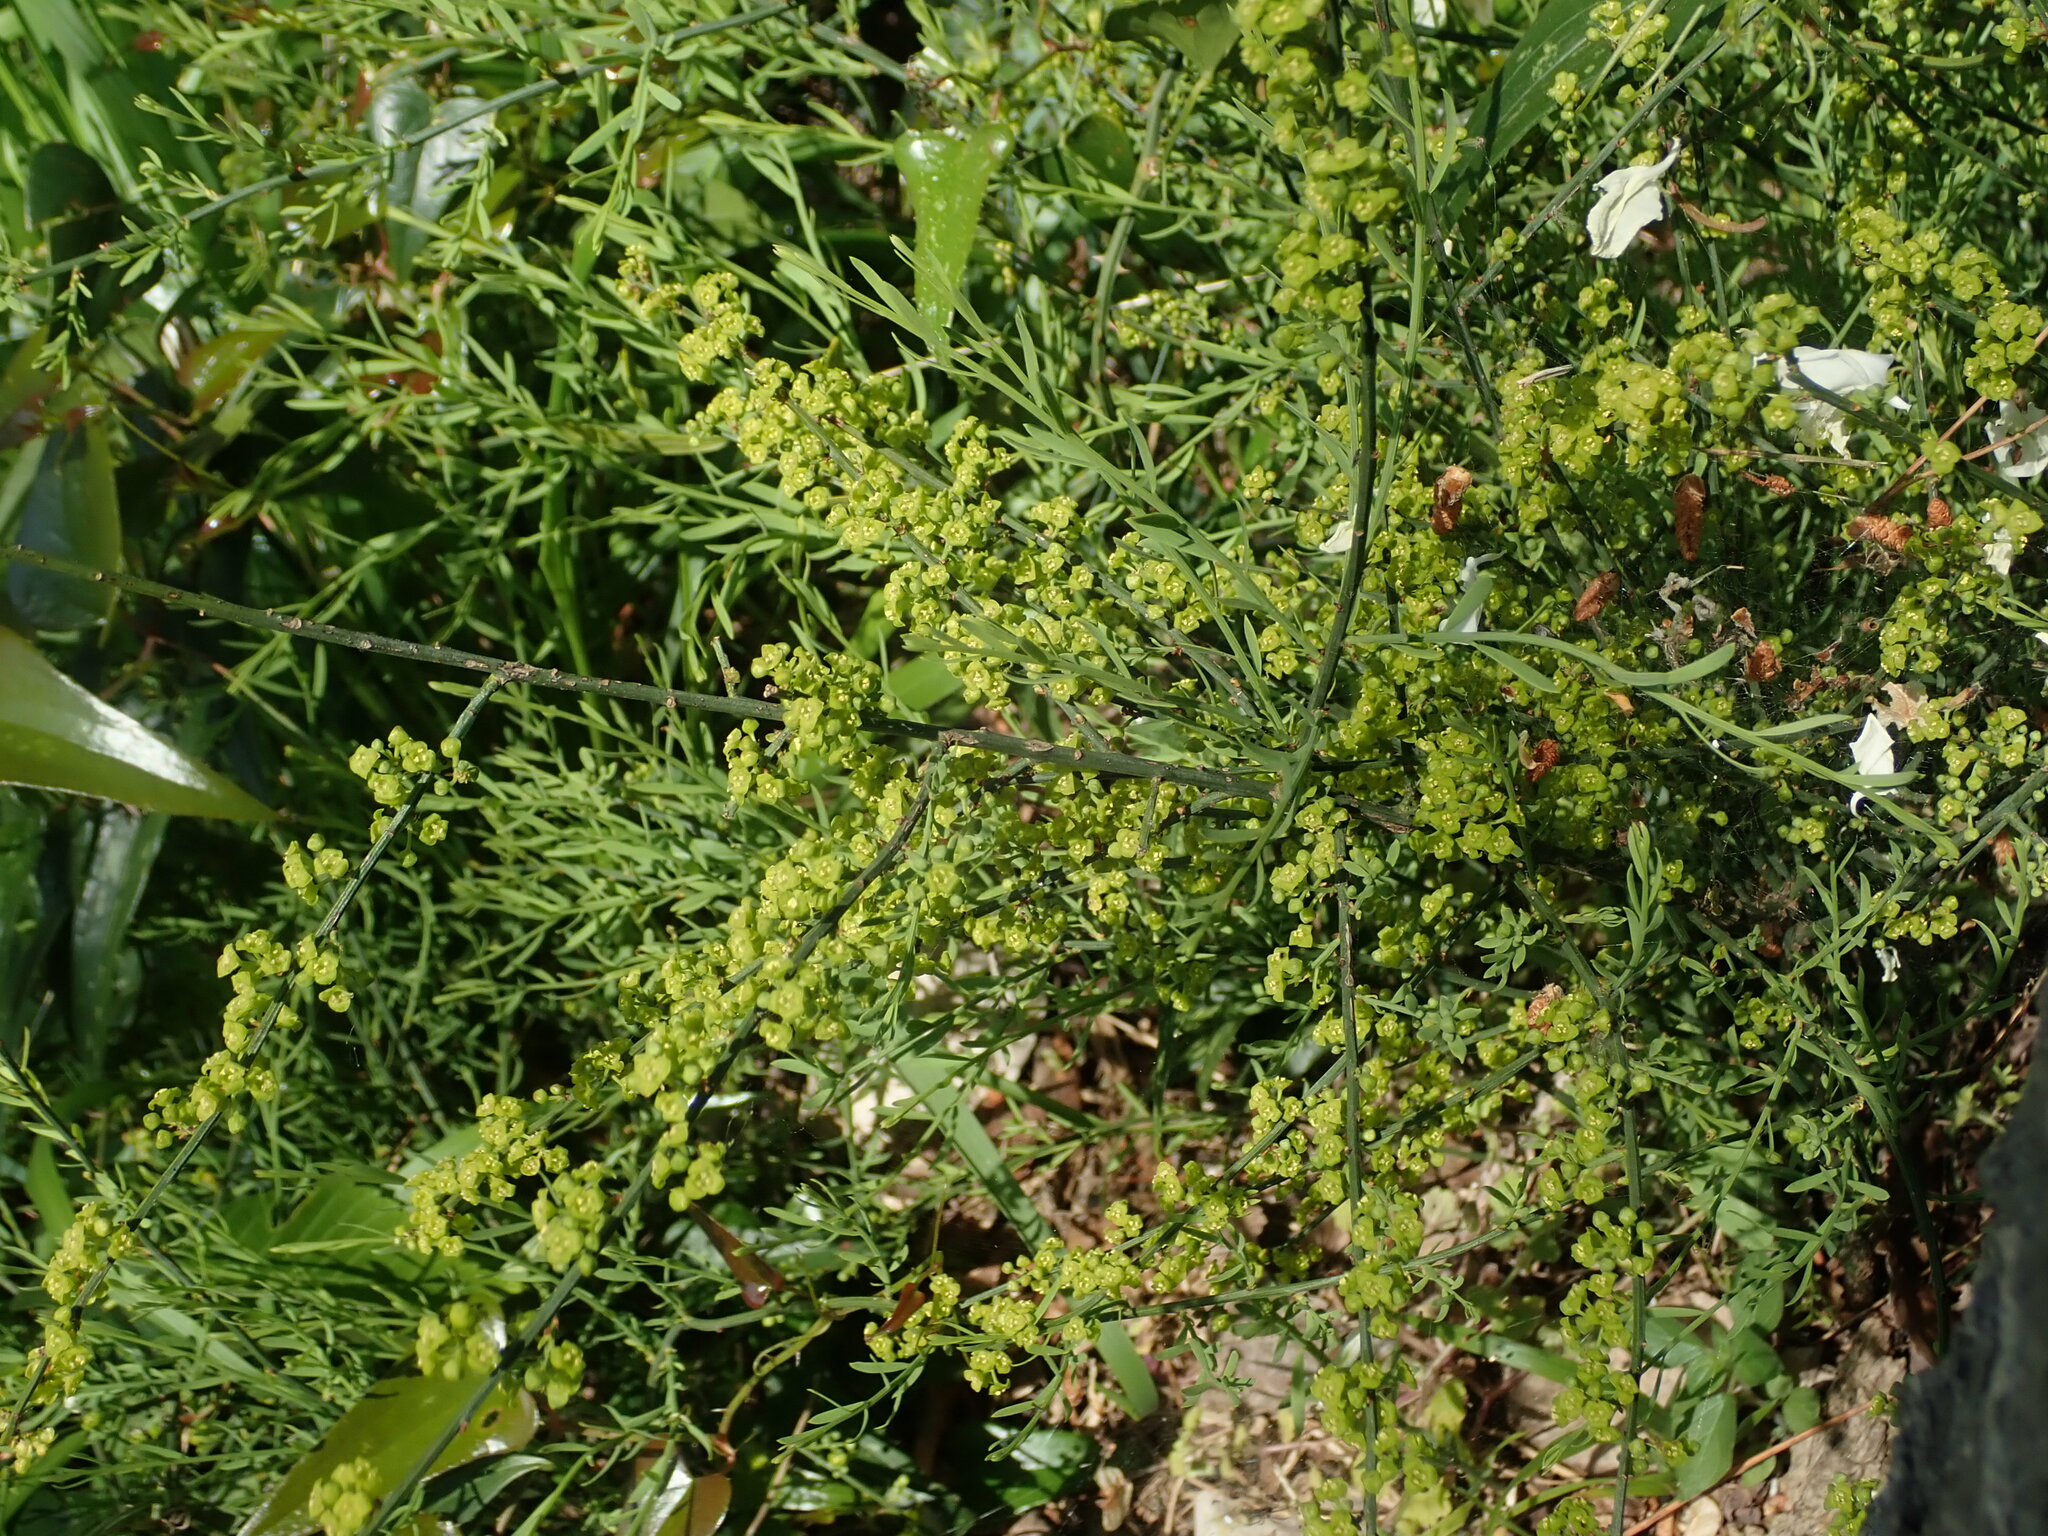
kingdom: Plantae
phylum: Tracheophyta
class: Magnoliopsida
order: Santalales
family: Santalaceae
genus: Osyris
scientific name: Osyris alba
